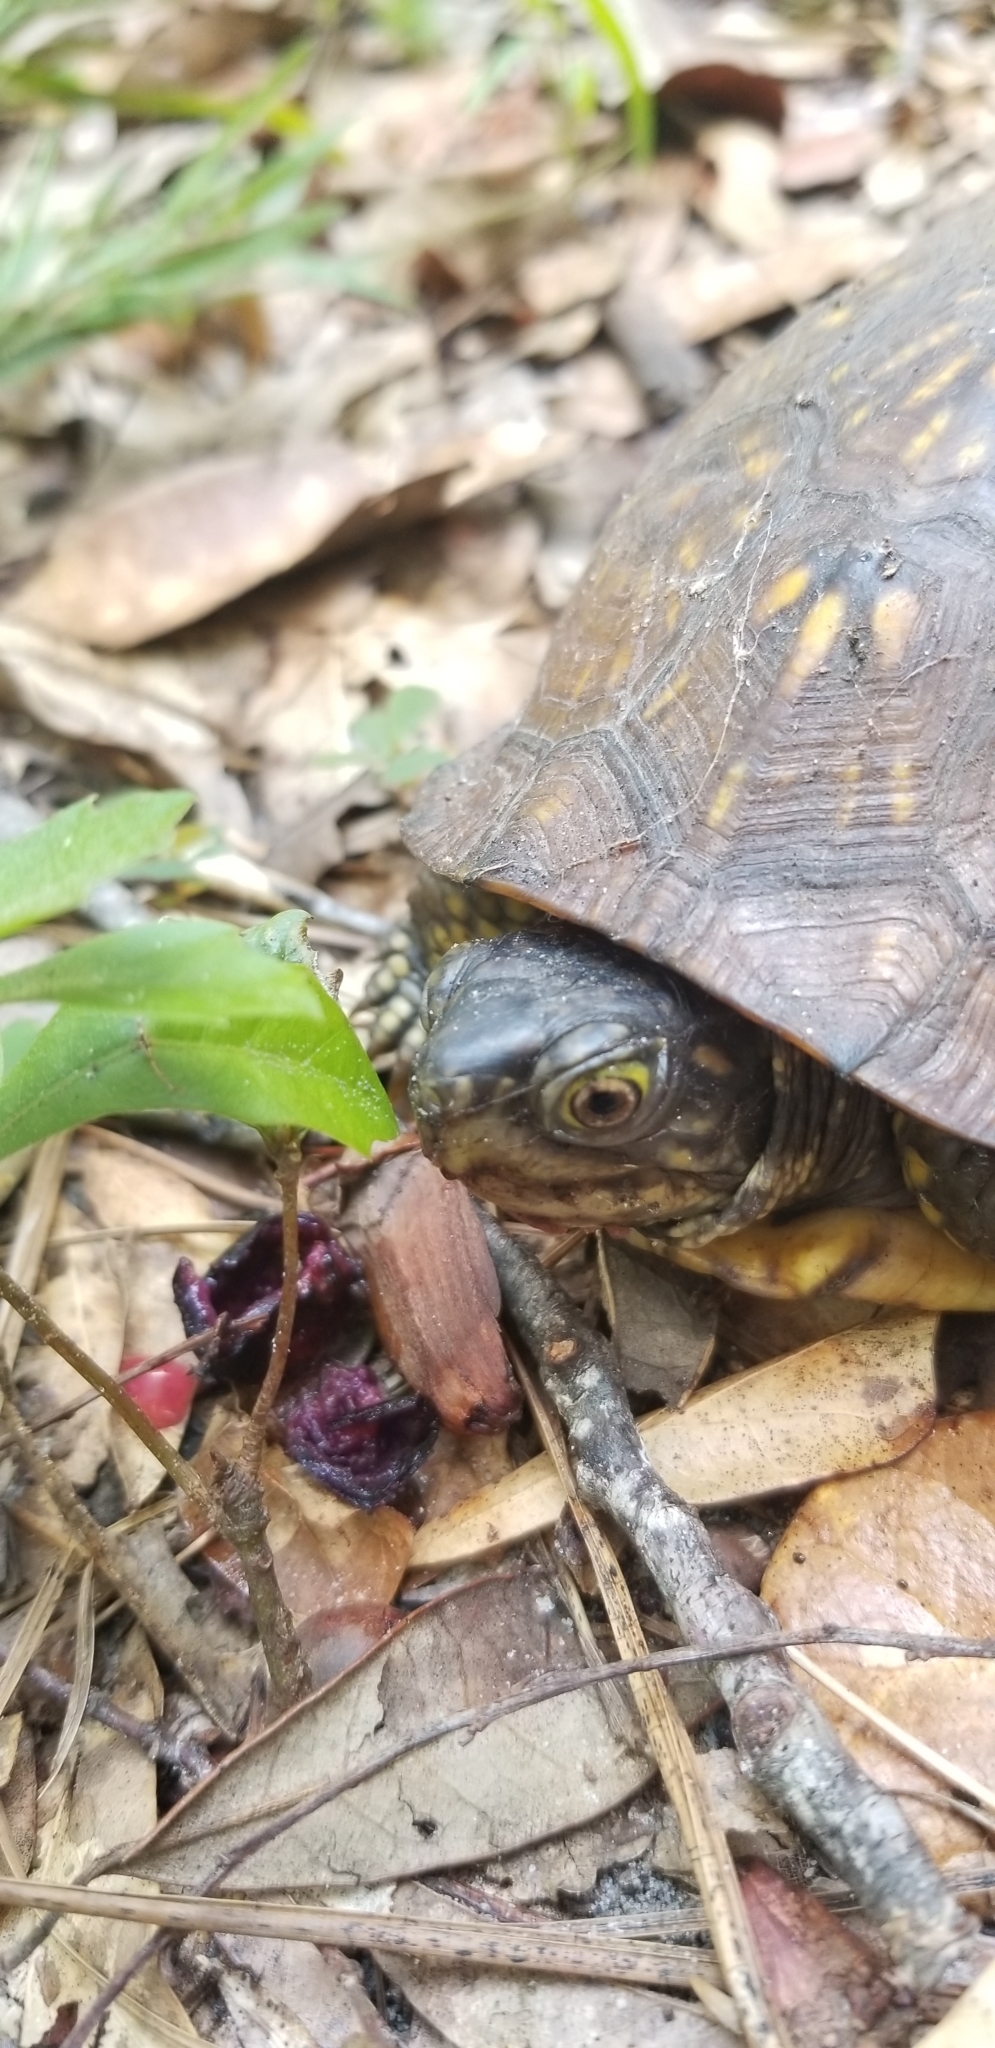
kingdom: Animalia
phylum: Chordata
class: Testudines
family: Emydidae
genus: Terrapene
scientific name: Terrapene carolina
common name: Common box turtle
